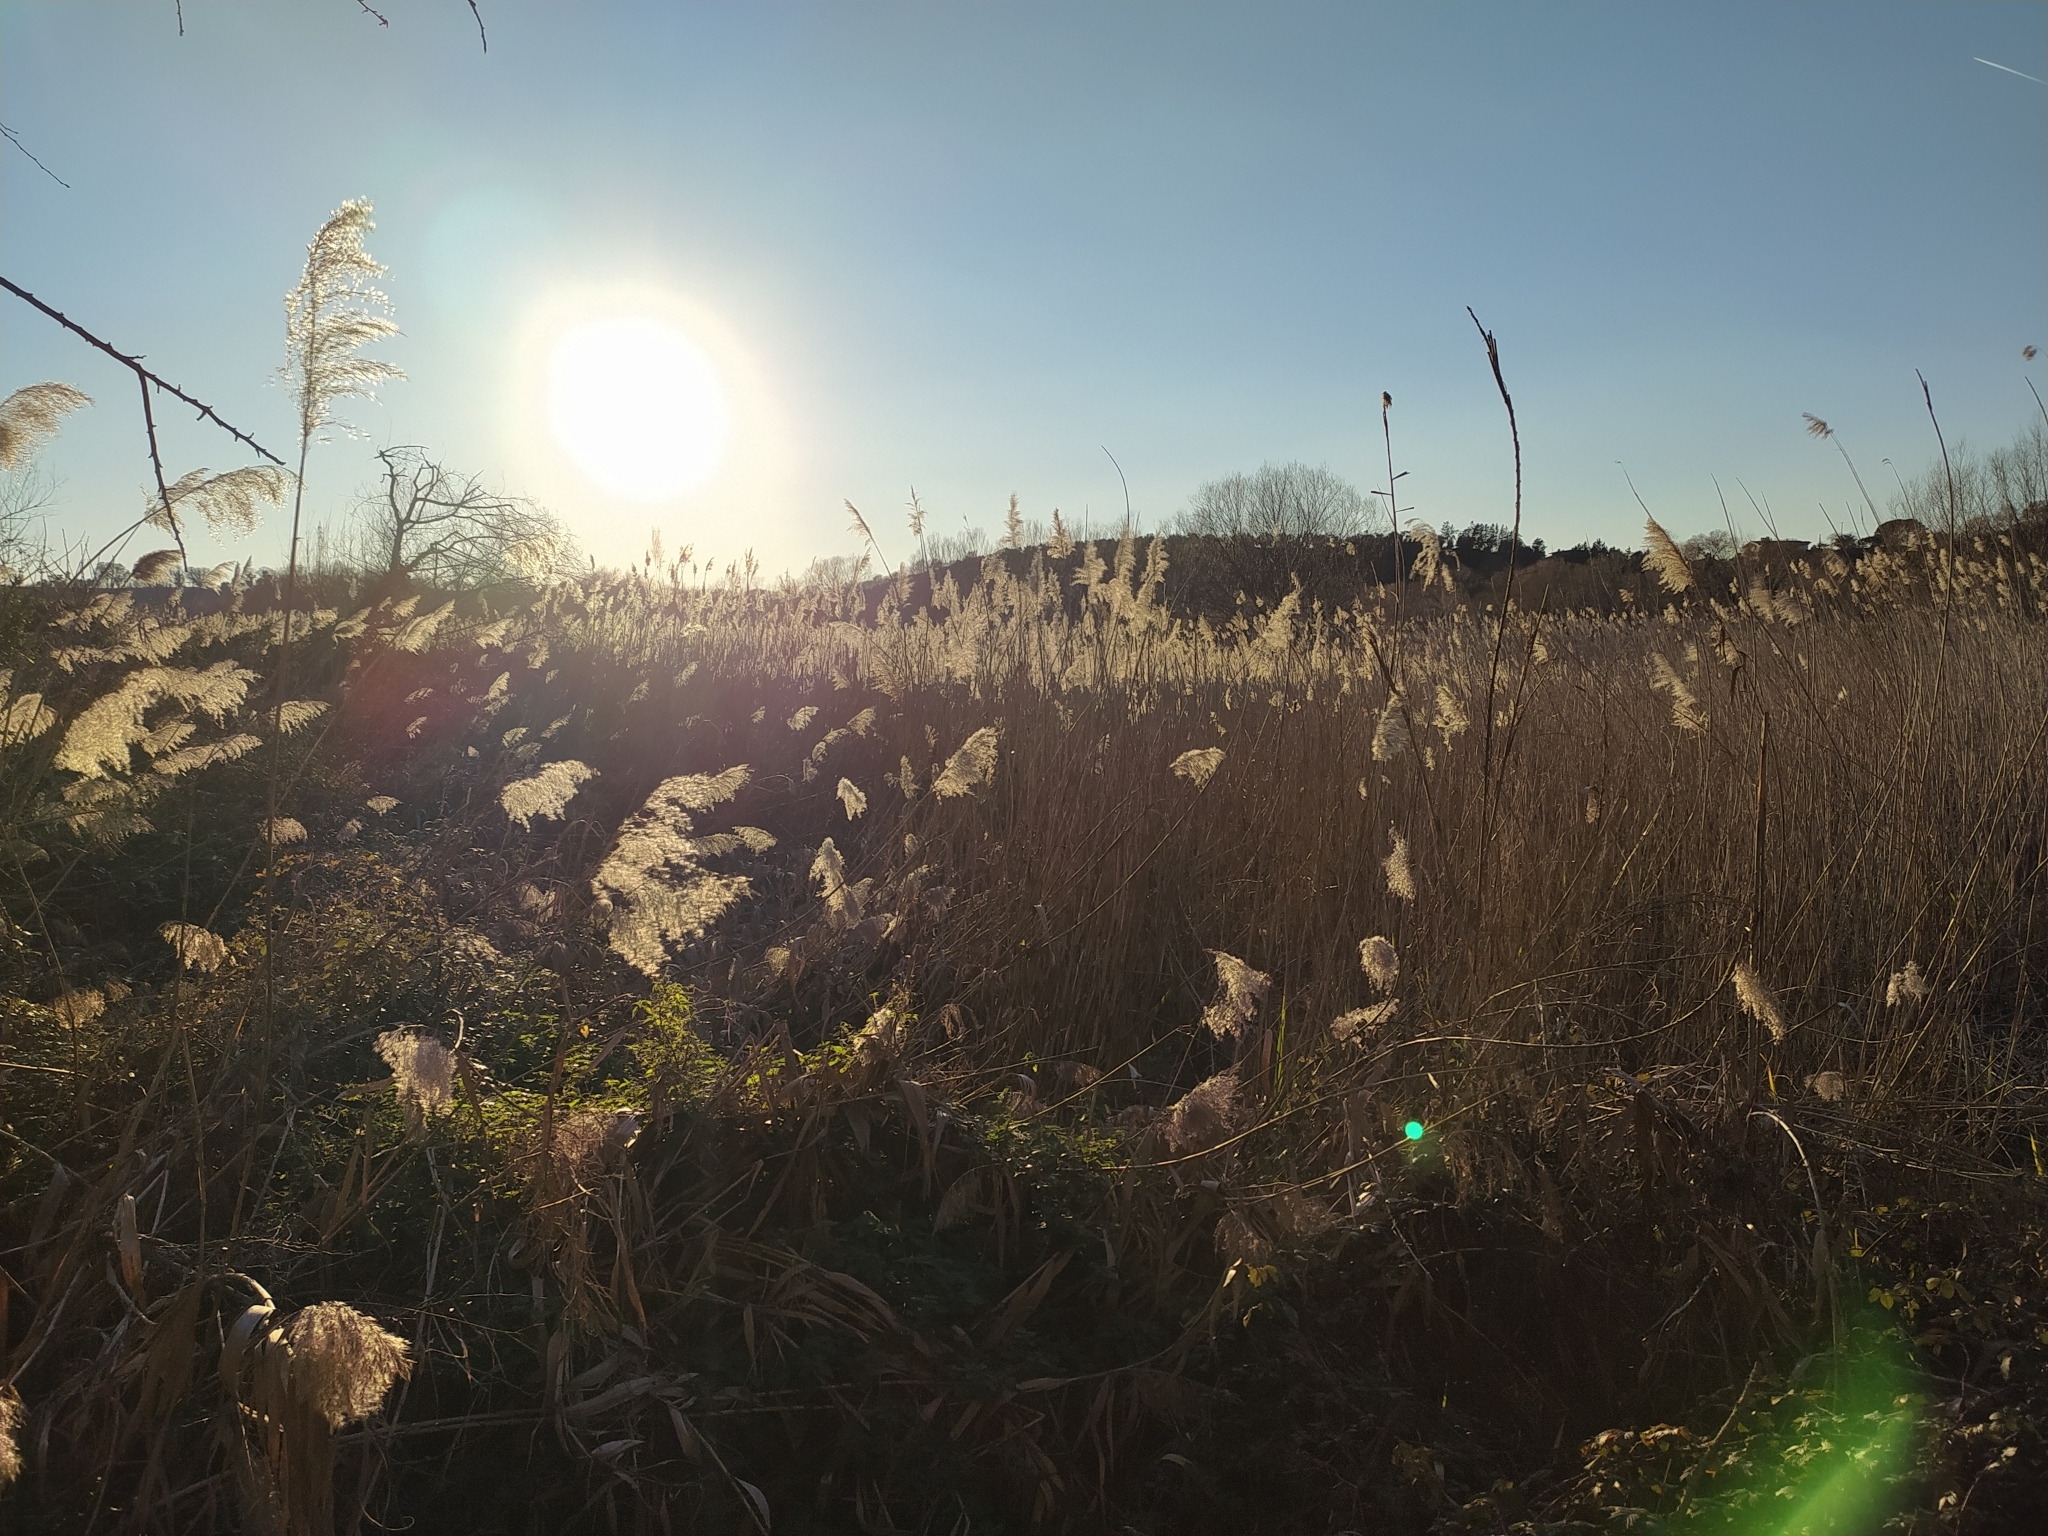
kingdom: Plantae
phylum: Tracheophyta
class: Liliopsida
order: Poales
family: Poaceae
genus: Phragmites
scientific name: Phragmites australis
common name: Common reed
